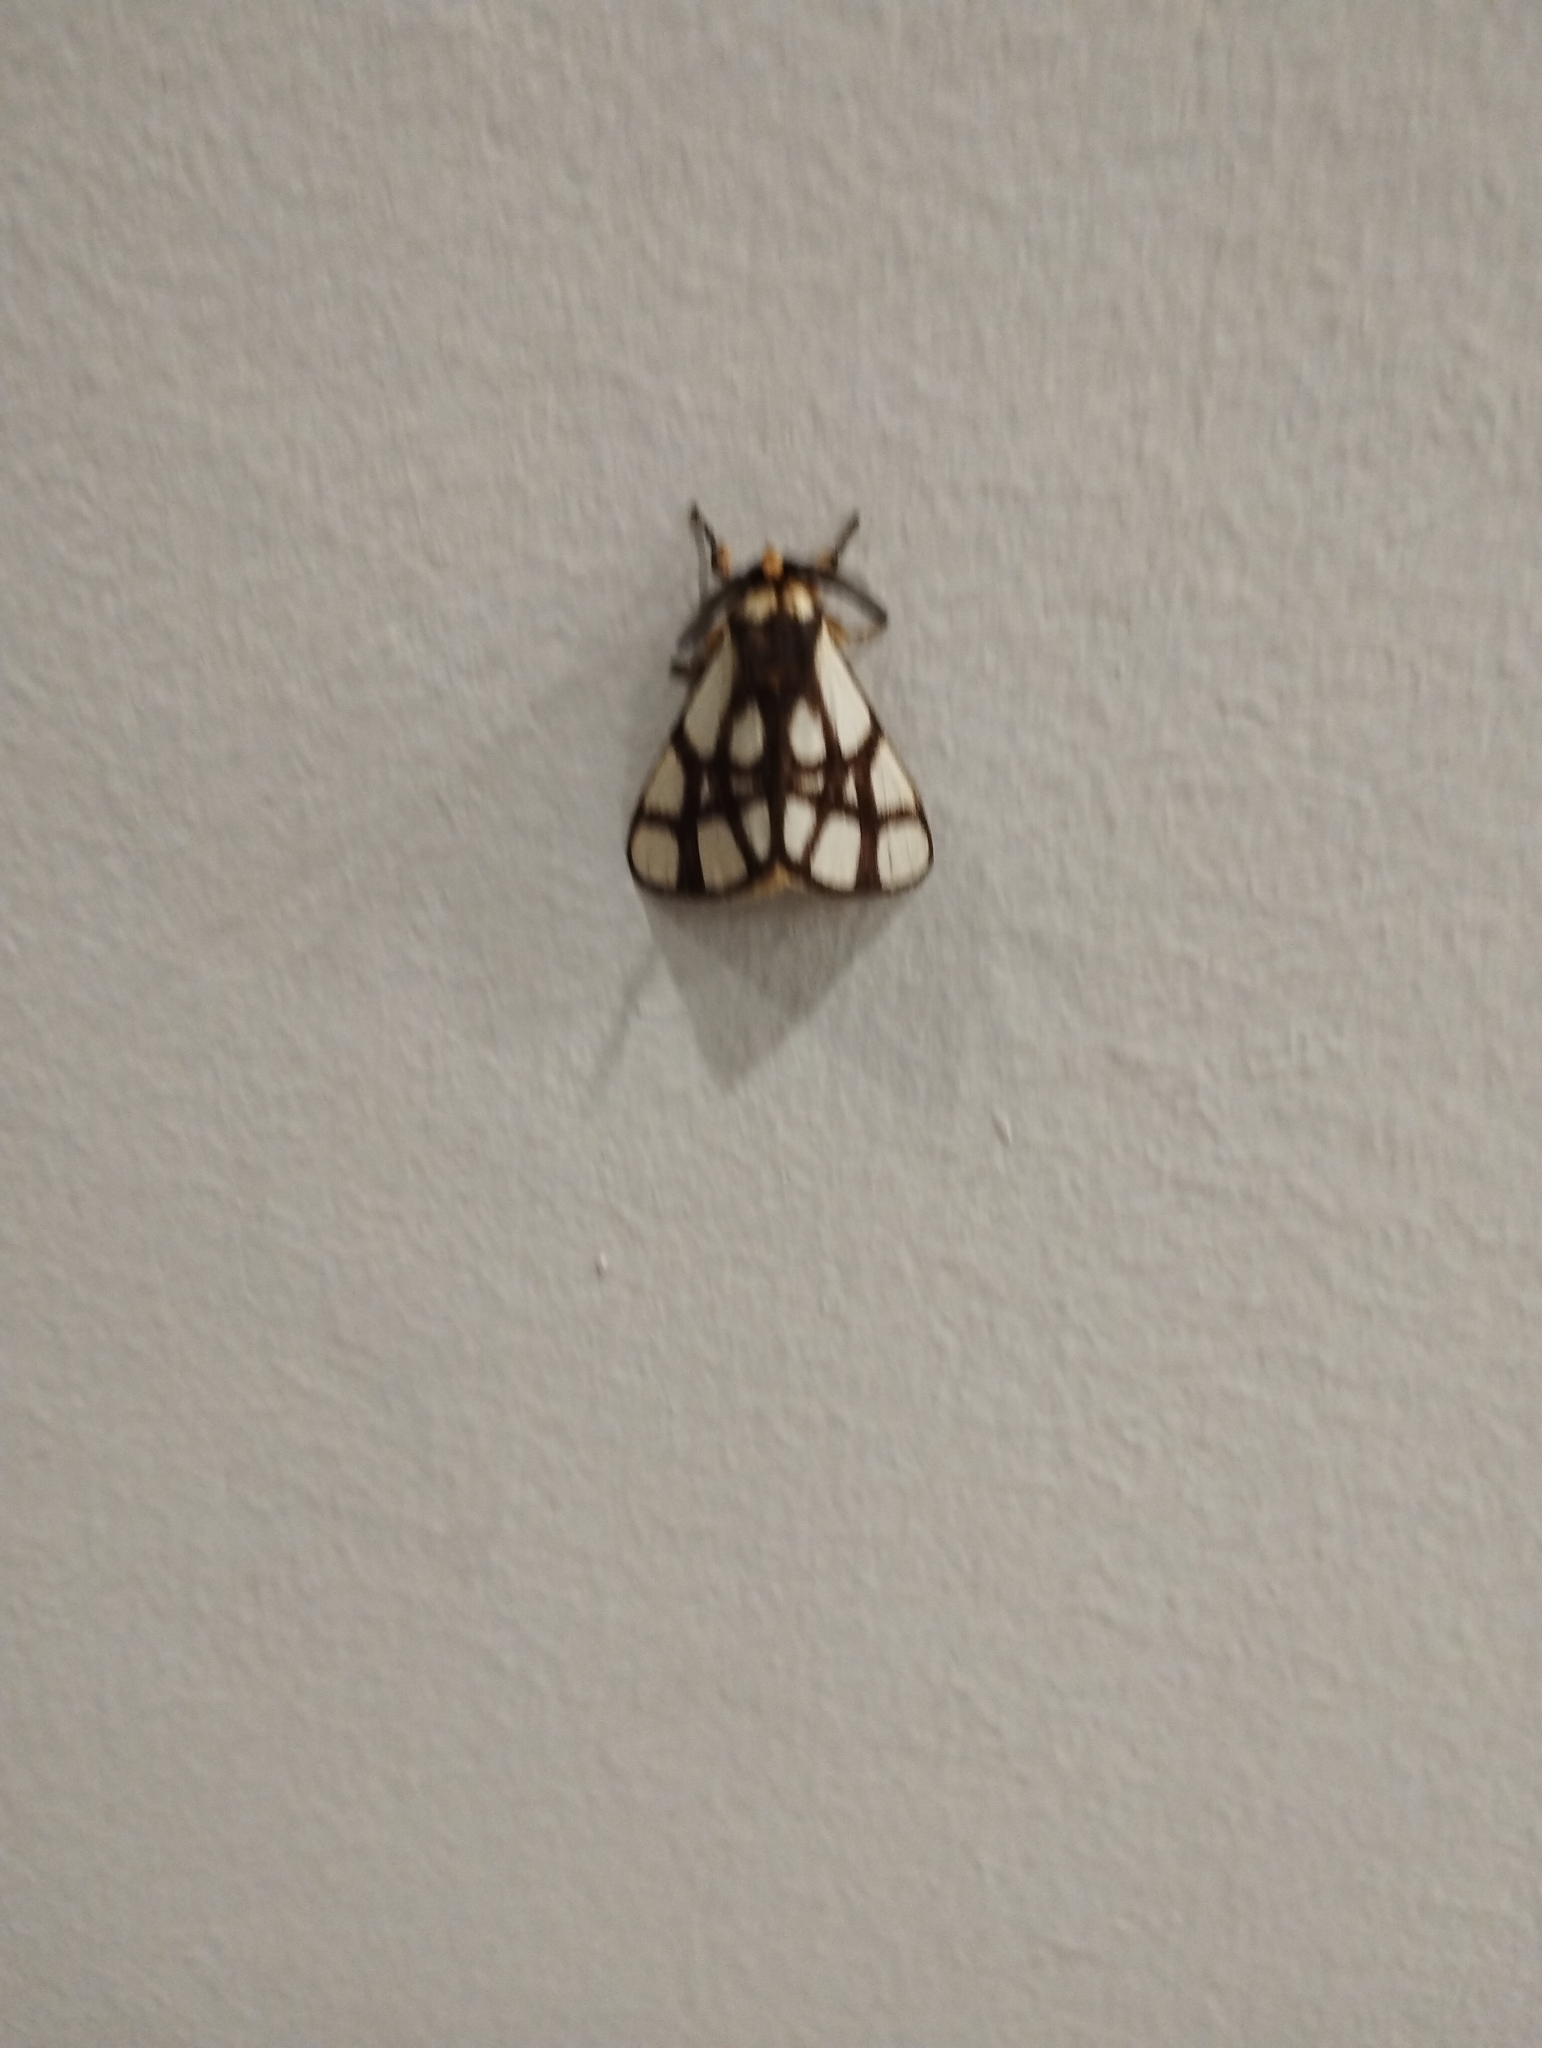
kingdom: Animalia
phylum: Arthropoda
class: Insecta
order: Lepidoptera
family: Notodontidae
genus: Anaphe
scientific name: Anaphe reticulata
